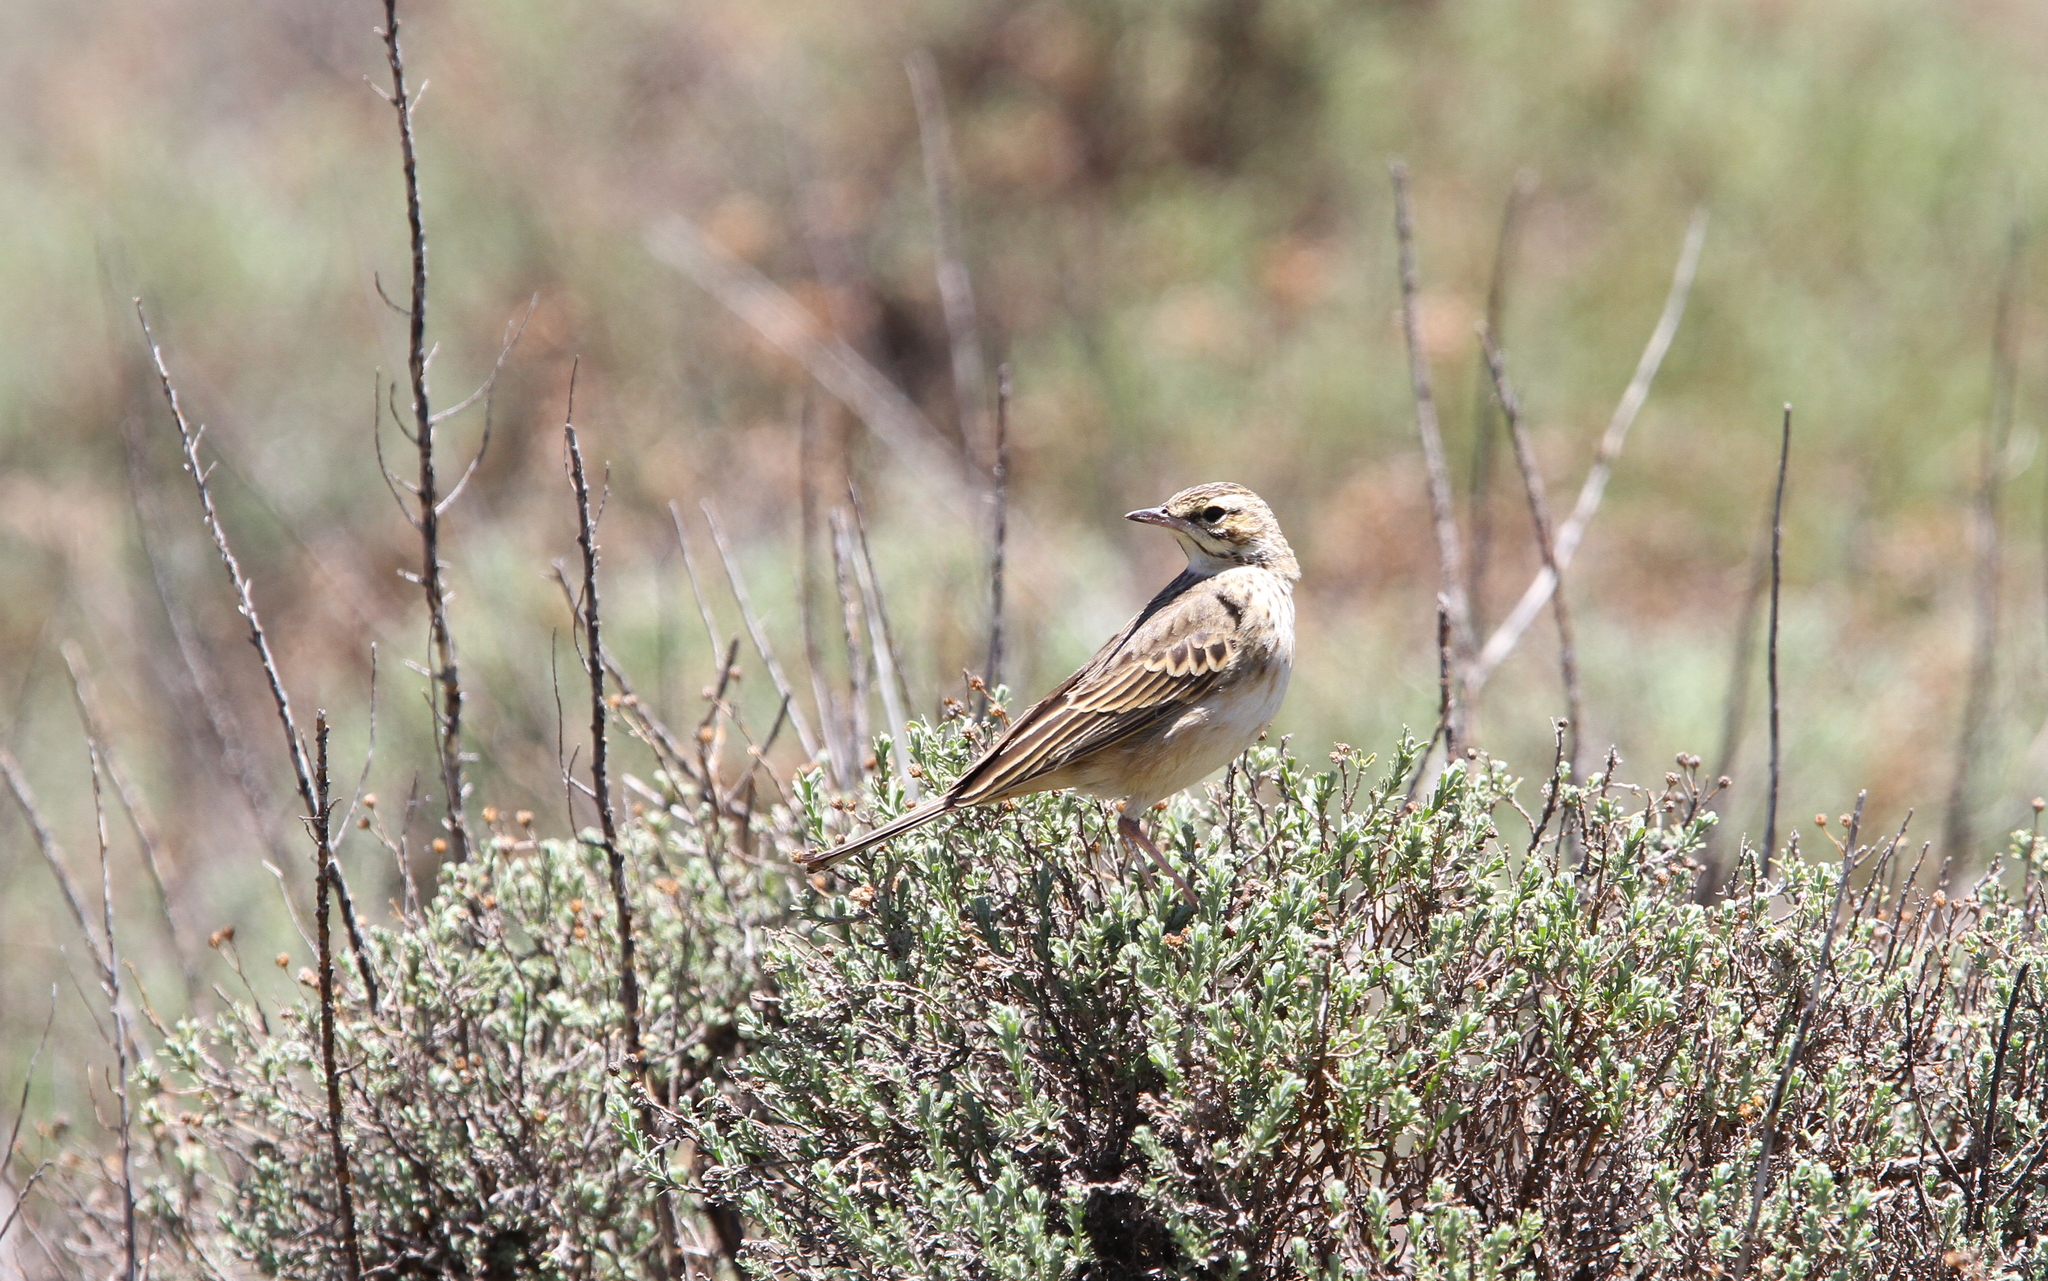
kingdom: Animalia
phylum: Chordata
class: Aves
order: Passeriformes
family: Motacillidae
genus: Anthus
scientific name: Anthus hoeschi
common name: Mountain pipit
